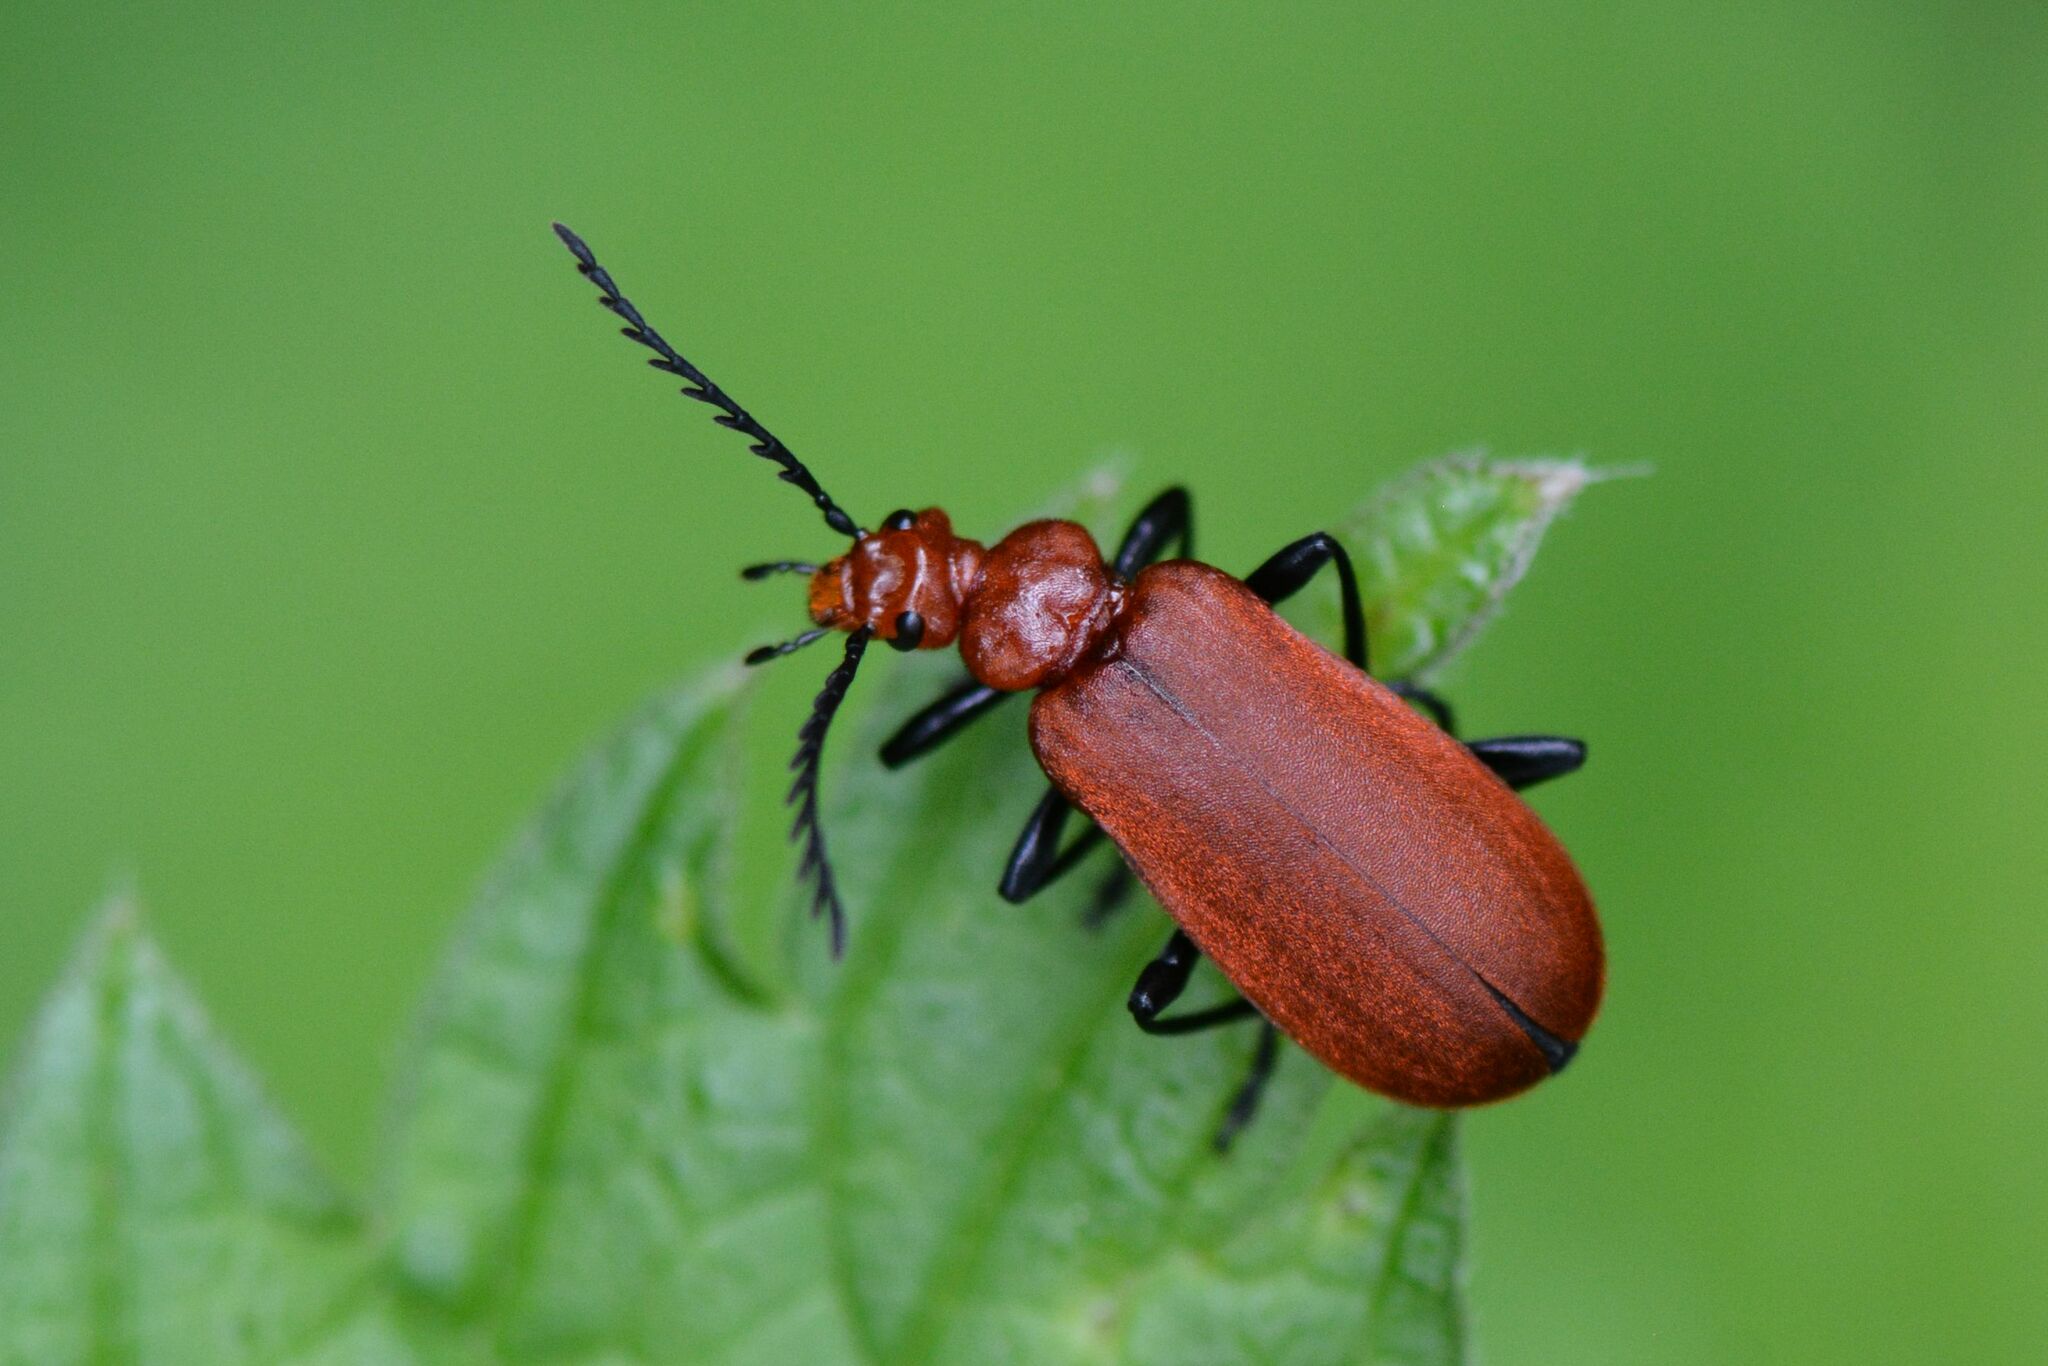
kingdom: Animalia
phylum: Arthropoda
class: Insecta
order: Coleoptera
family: Pyrochroidae
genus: Pyrochroa
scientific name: Pyrochroa serraticornis
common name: Red-headed cardinal beetle
